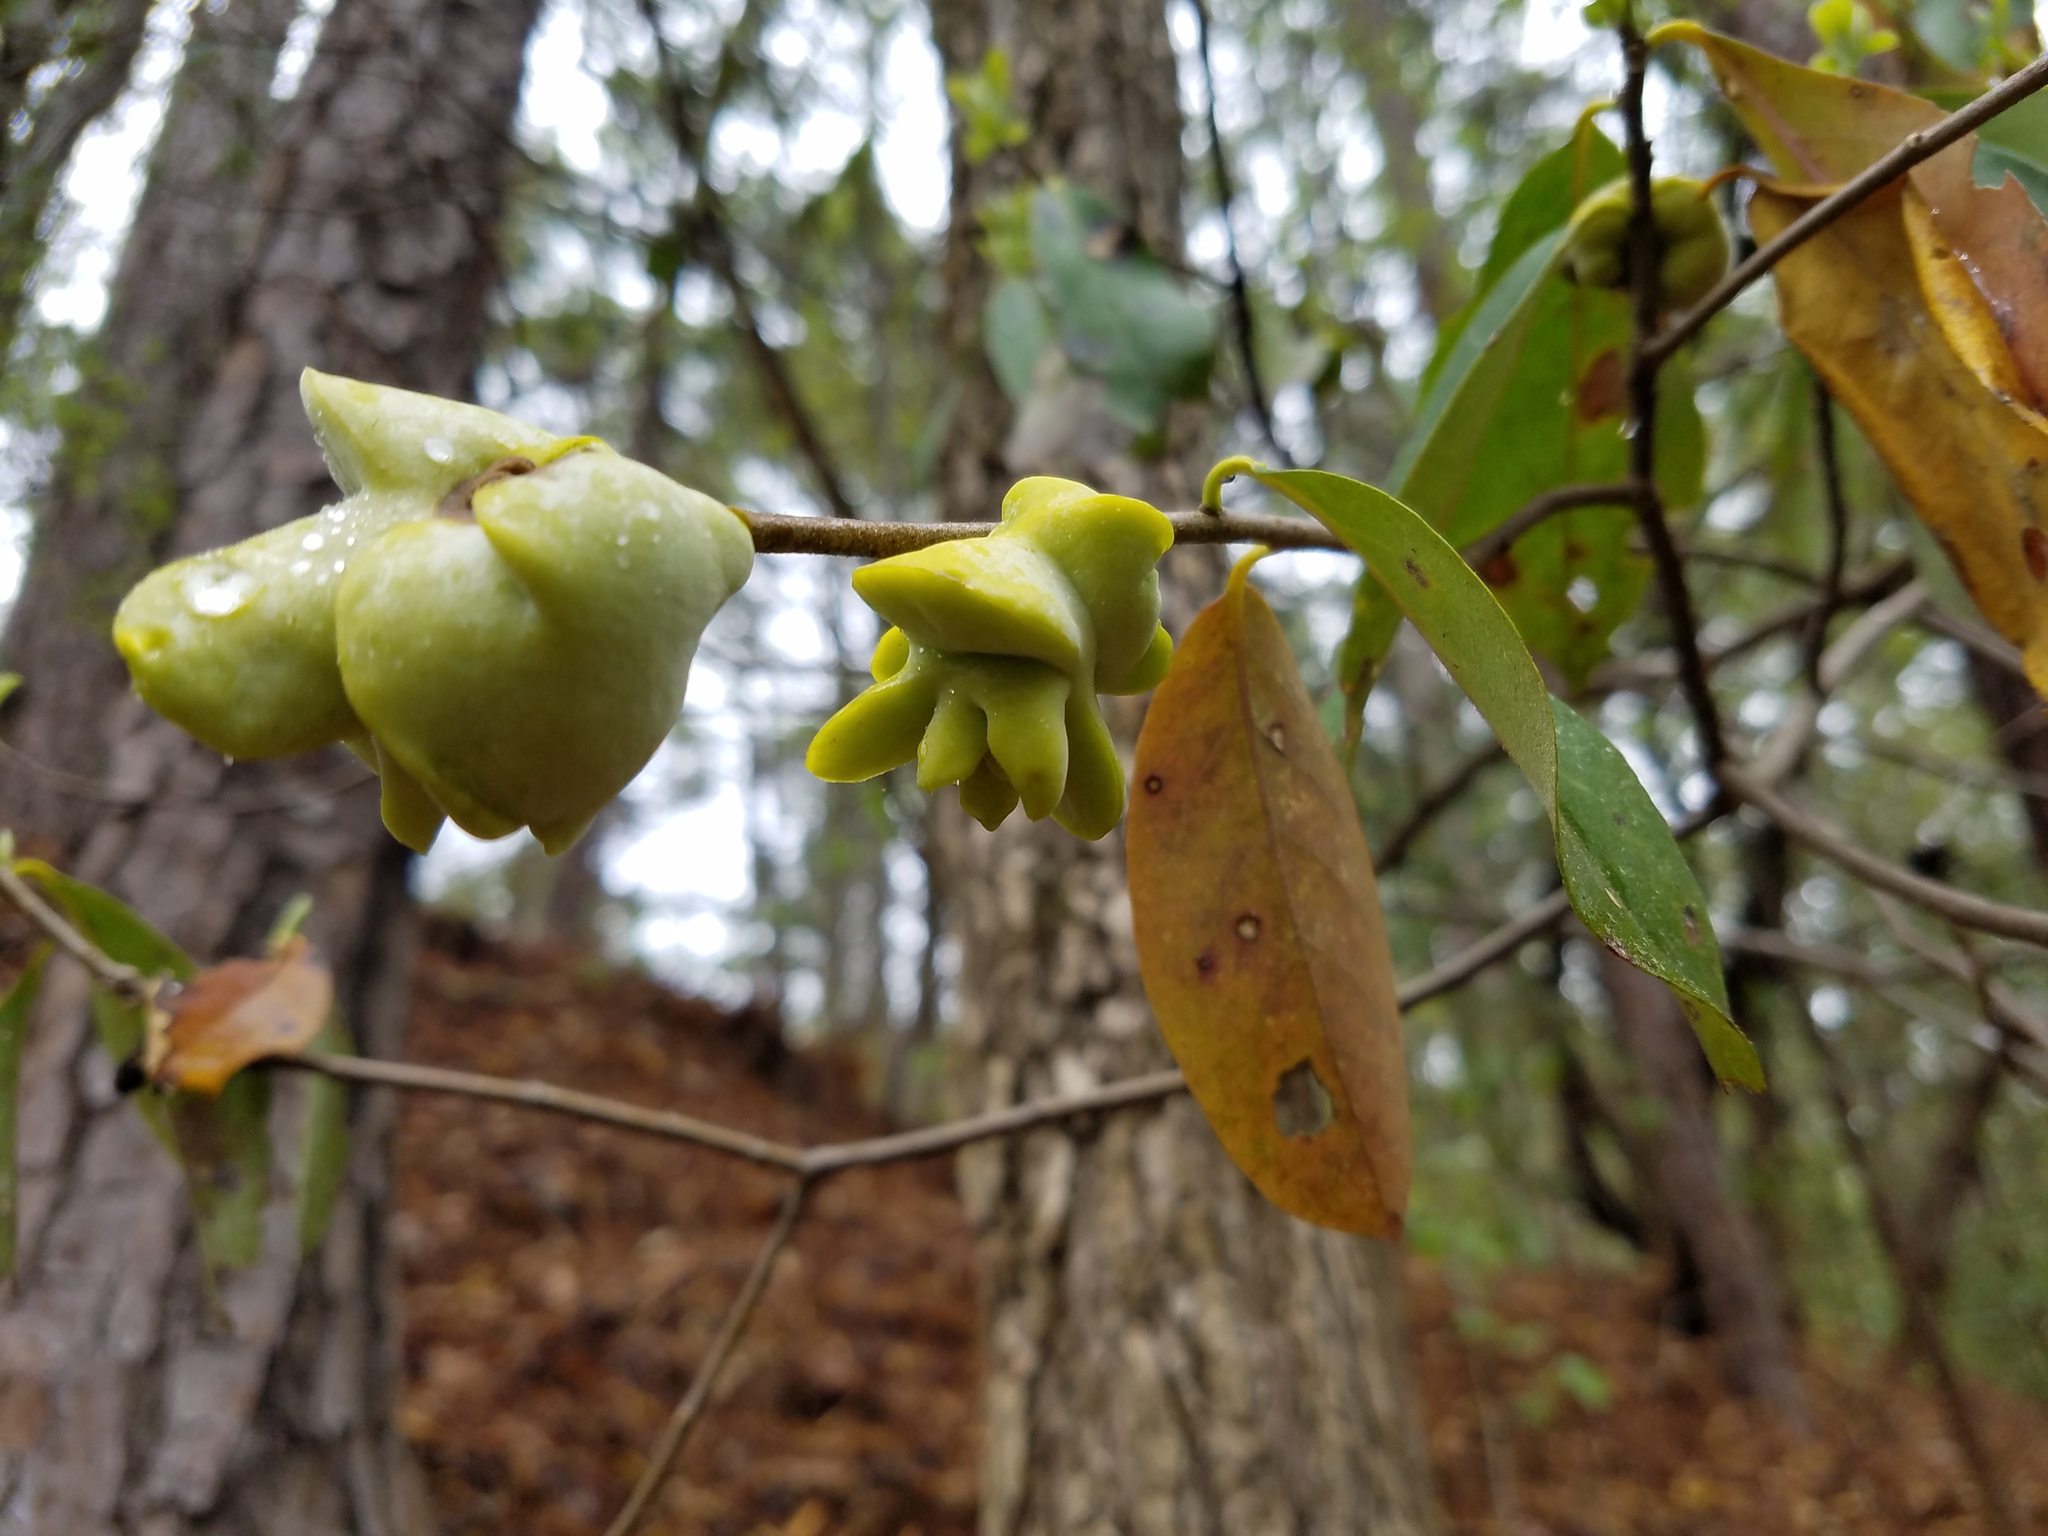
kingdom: Fungi
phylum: Basidiomycota
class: Exobasidiomycetes
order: Exobasidiales
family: Exobasidiaceae
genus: Exobasidium
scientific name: Exobasidium symploci
